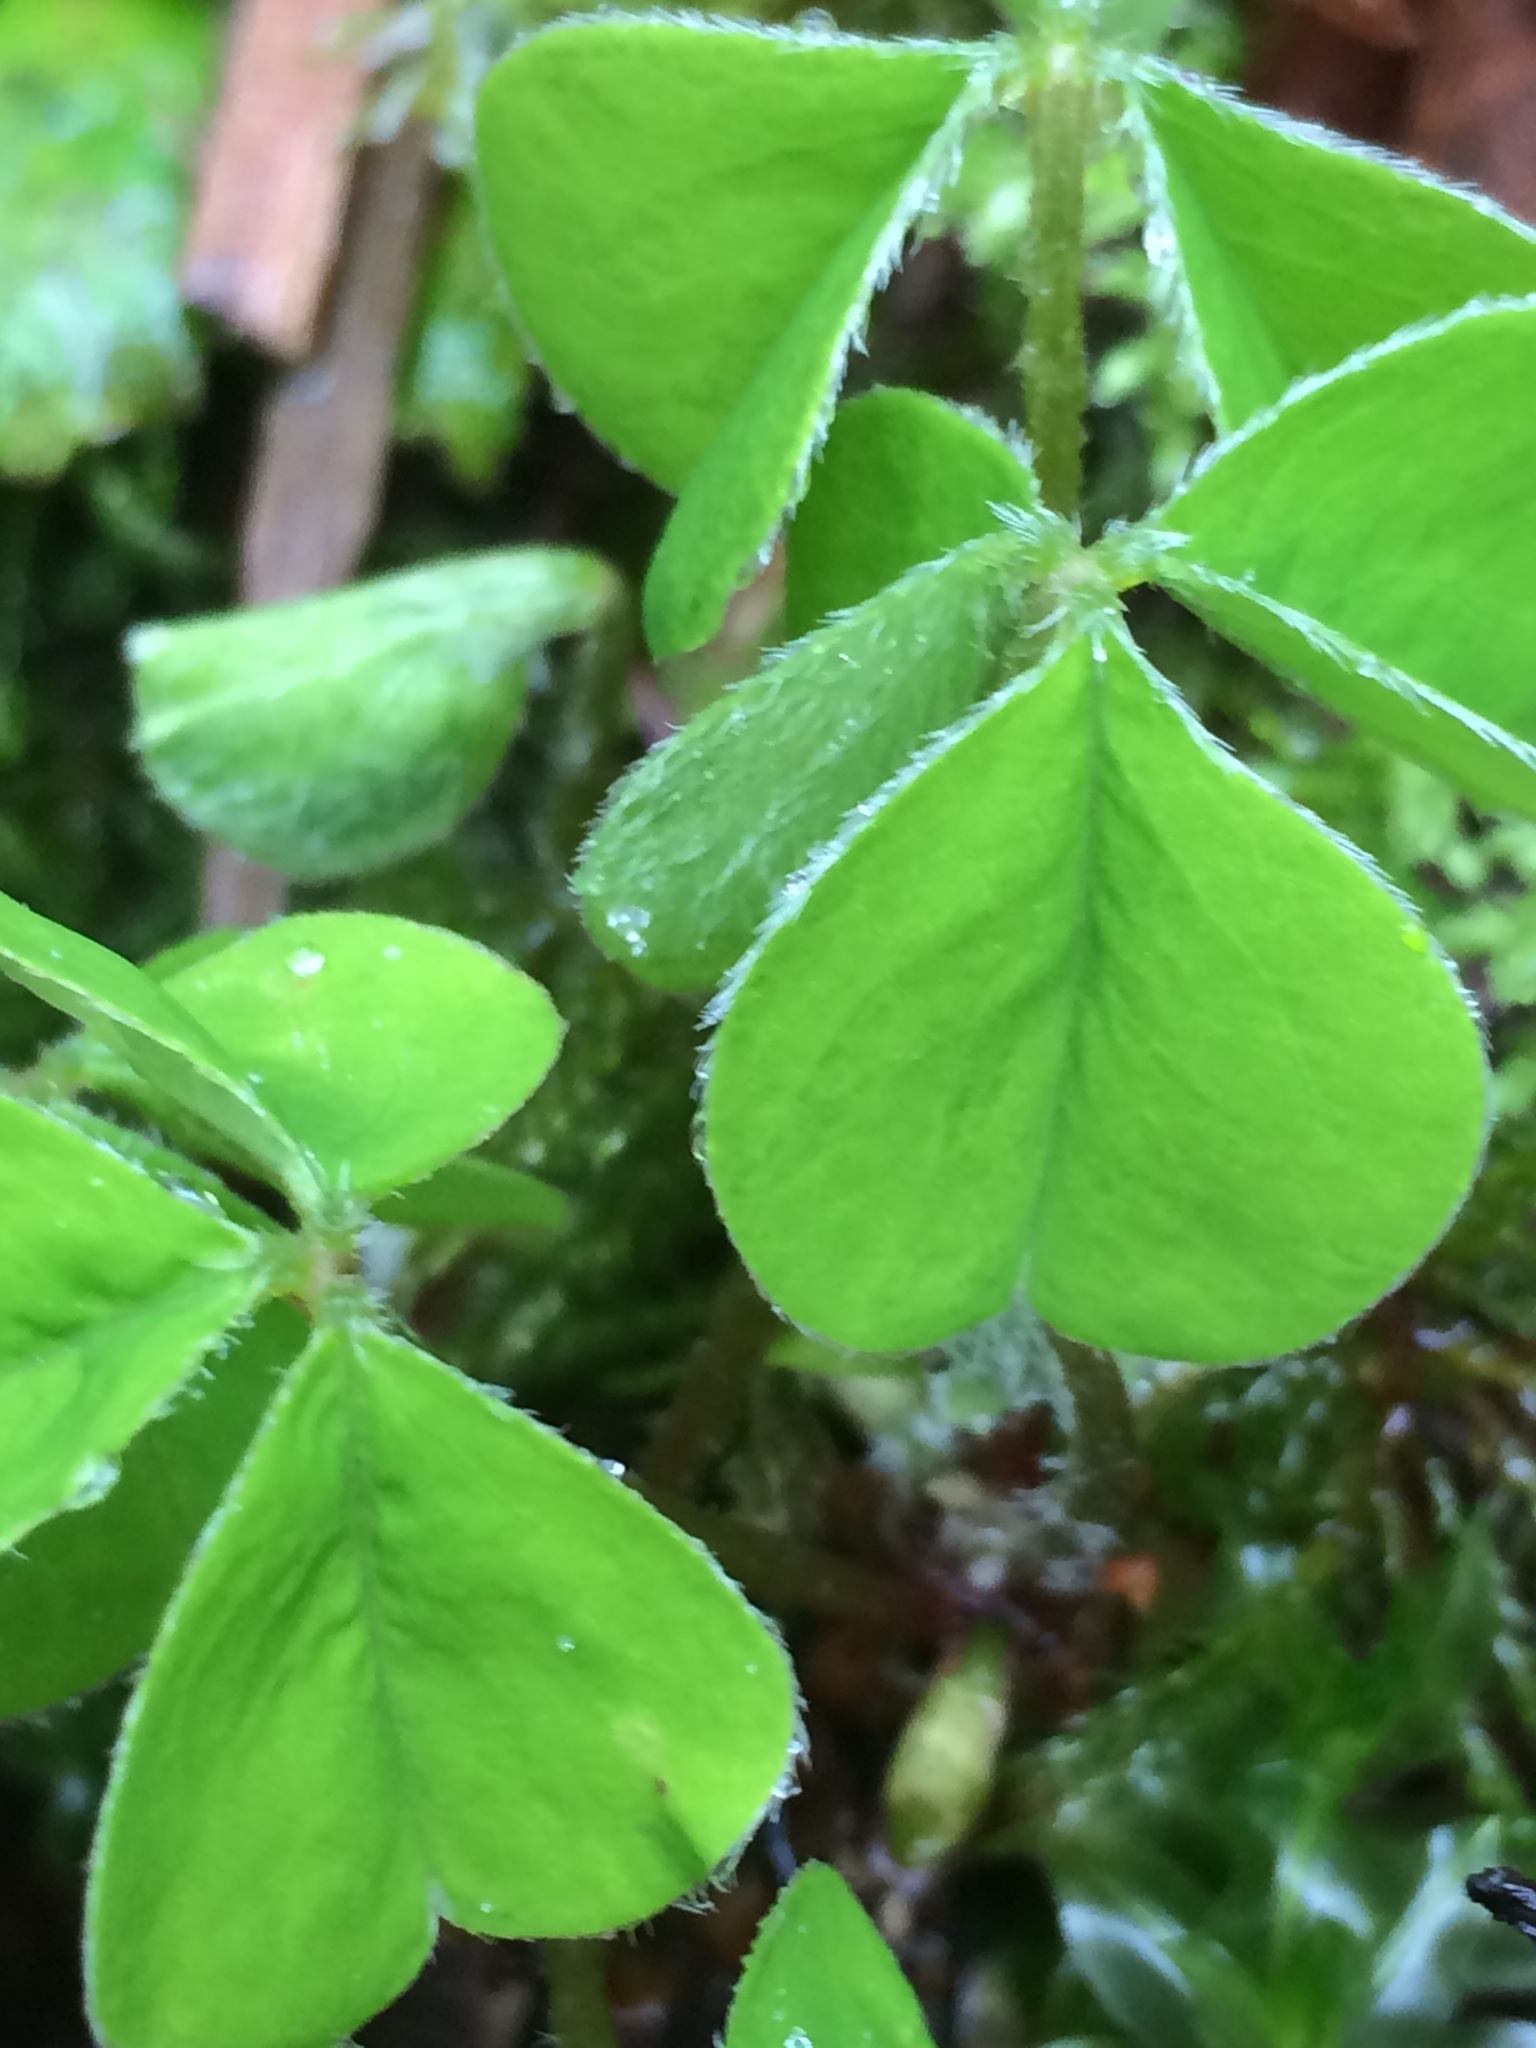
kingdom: Plantae
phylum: Tracheophyta
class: Magnoliopsida
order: Oxalidales
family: Oxalidaceae
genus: Oxalis
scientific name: Oxalis oregana
